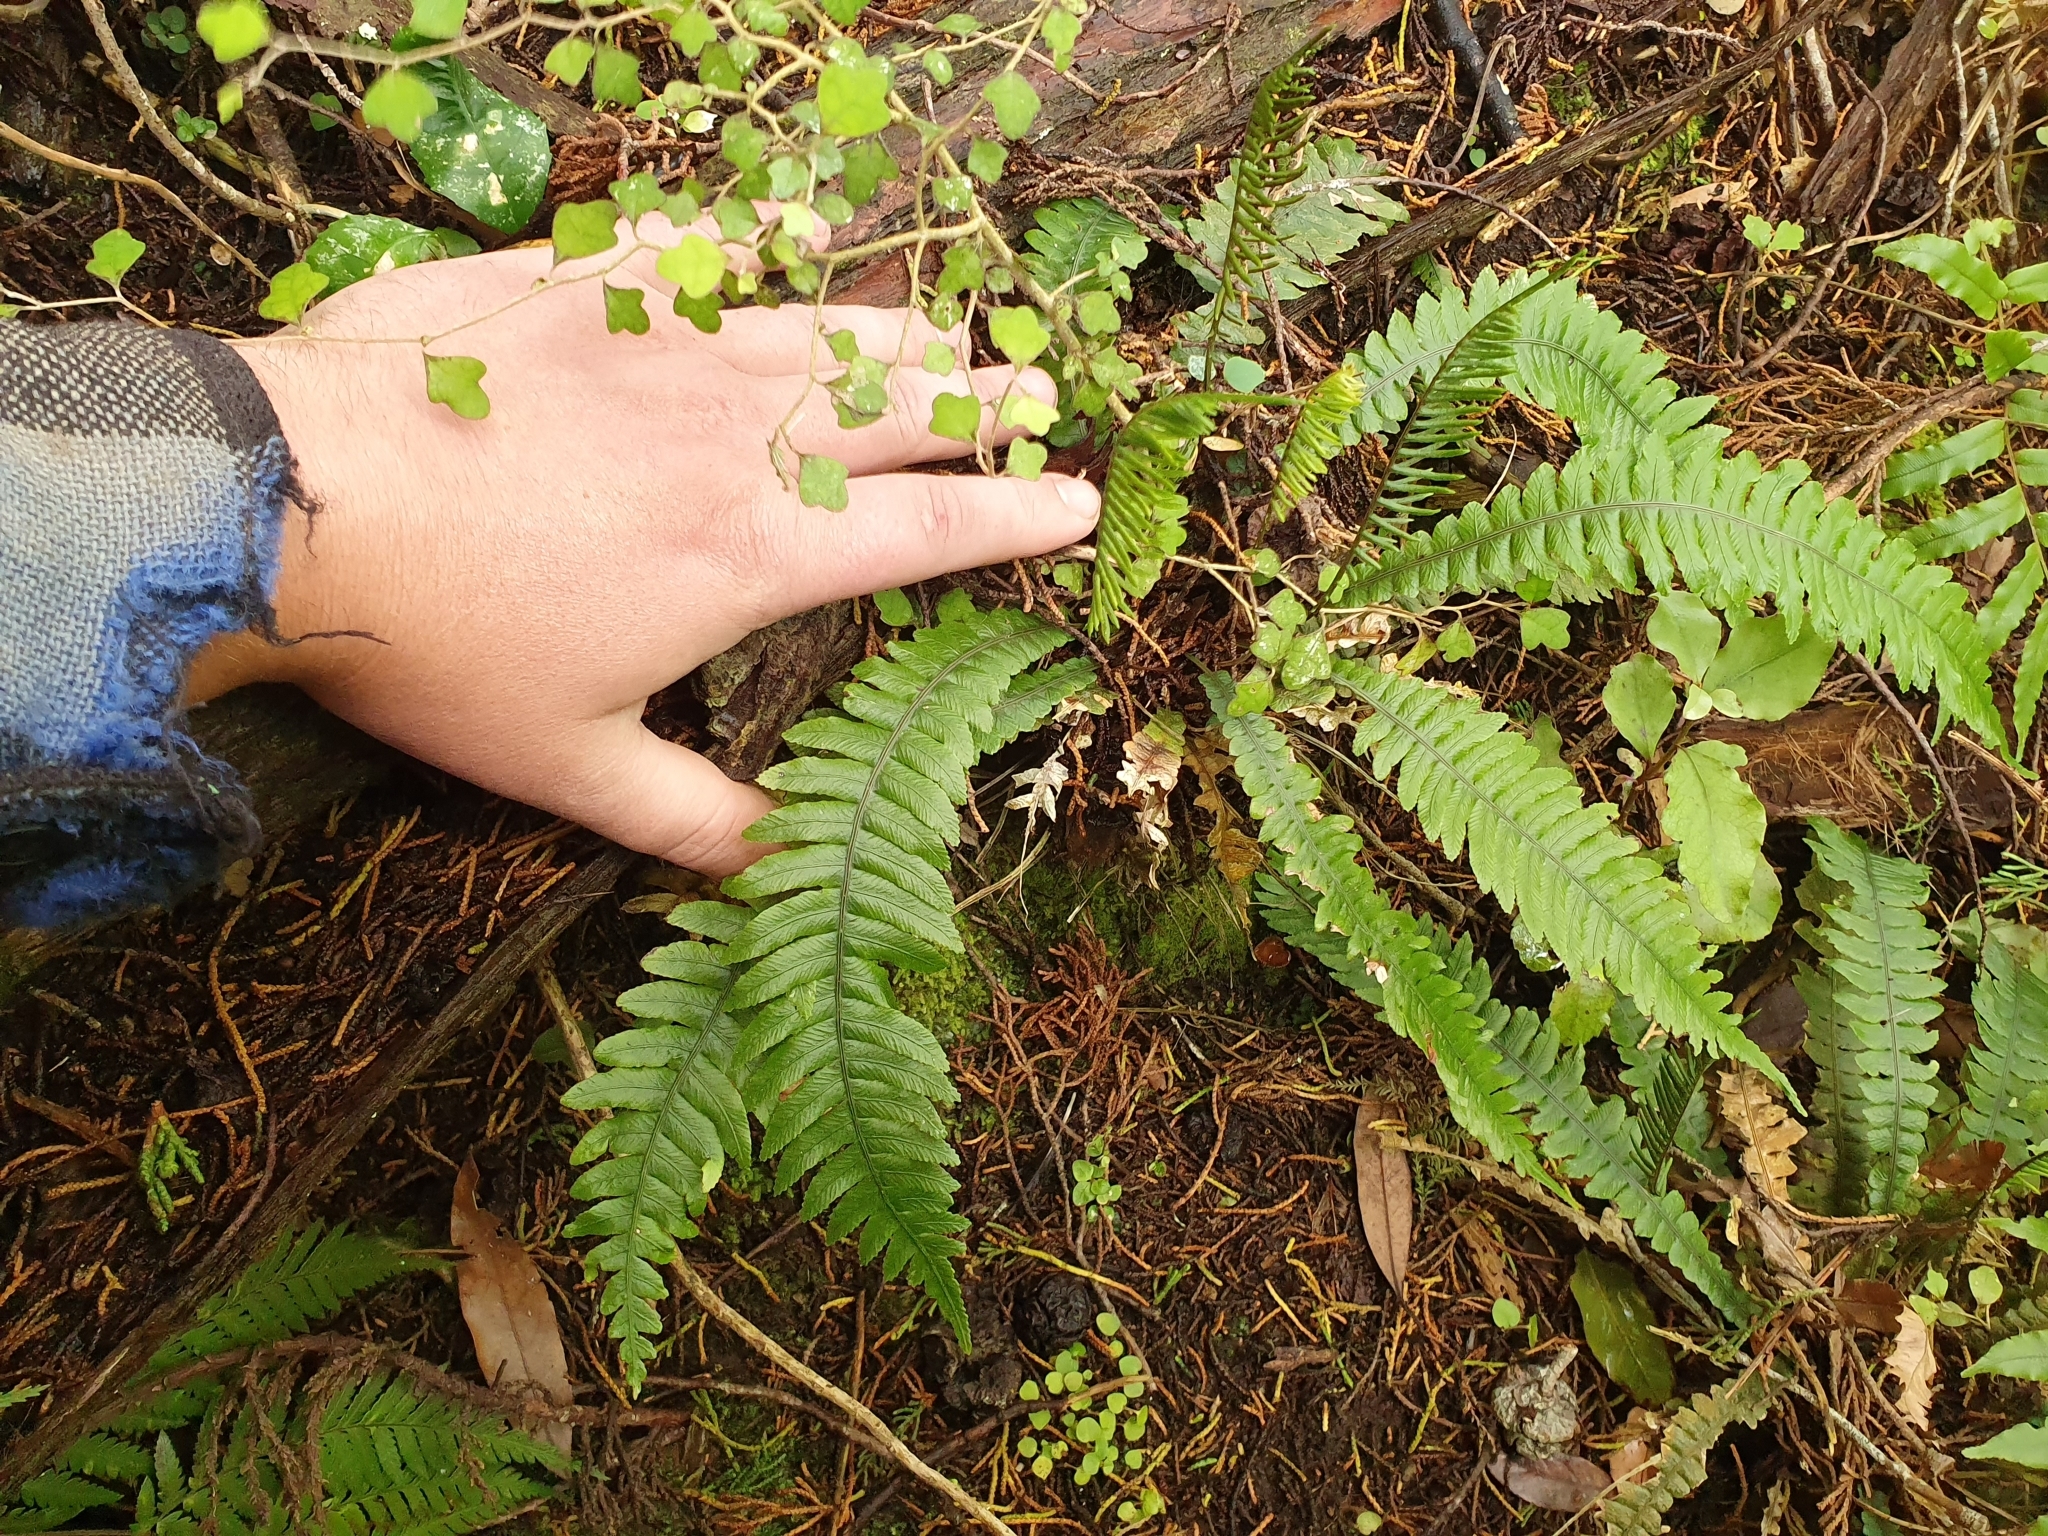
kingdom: Plantae
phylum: Tracheophyta
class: Polypodiopsida
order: Polypodiales
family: Blechnaceae
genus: Austroblechnum
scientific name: Austroblechnum lanceolatum
